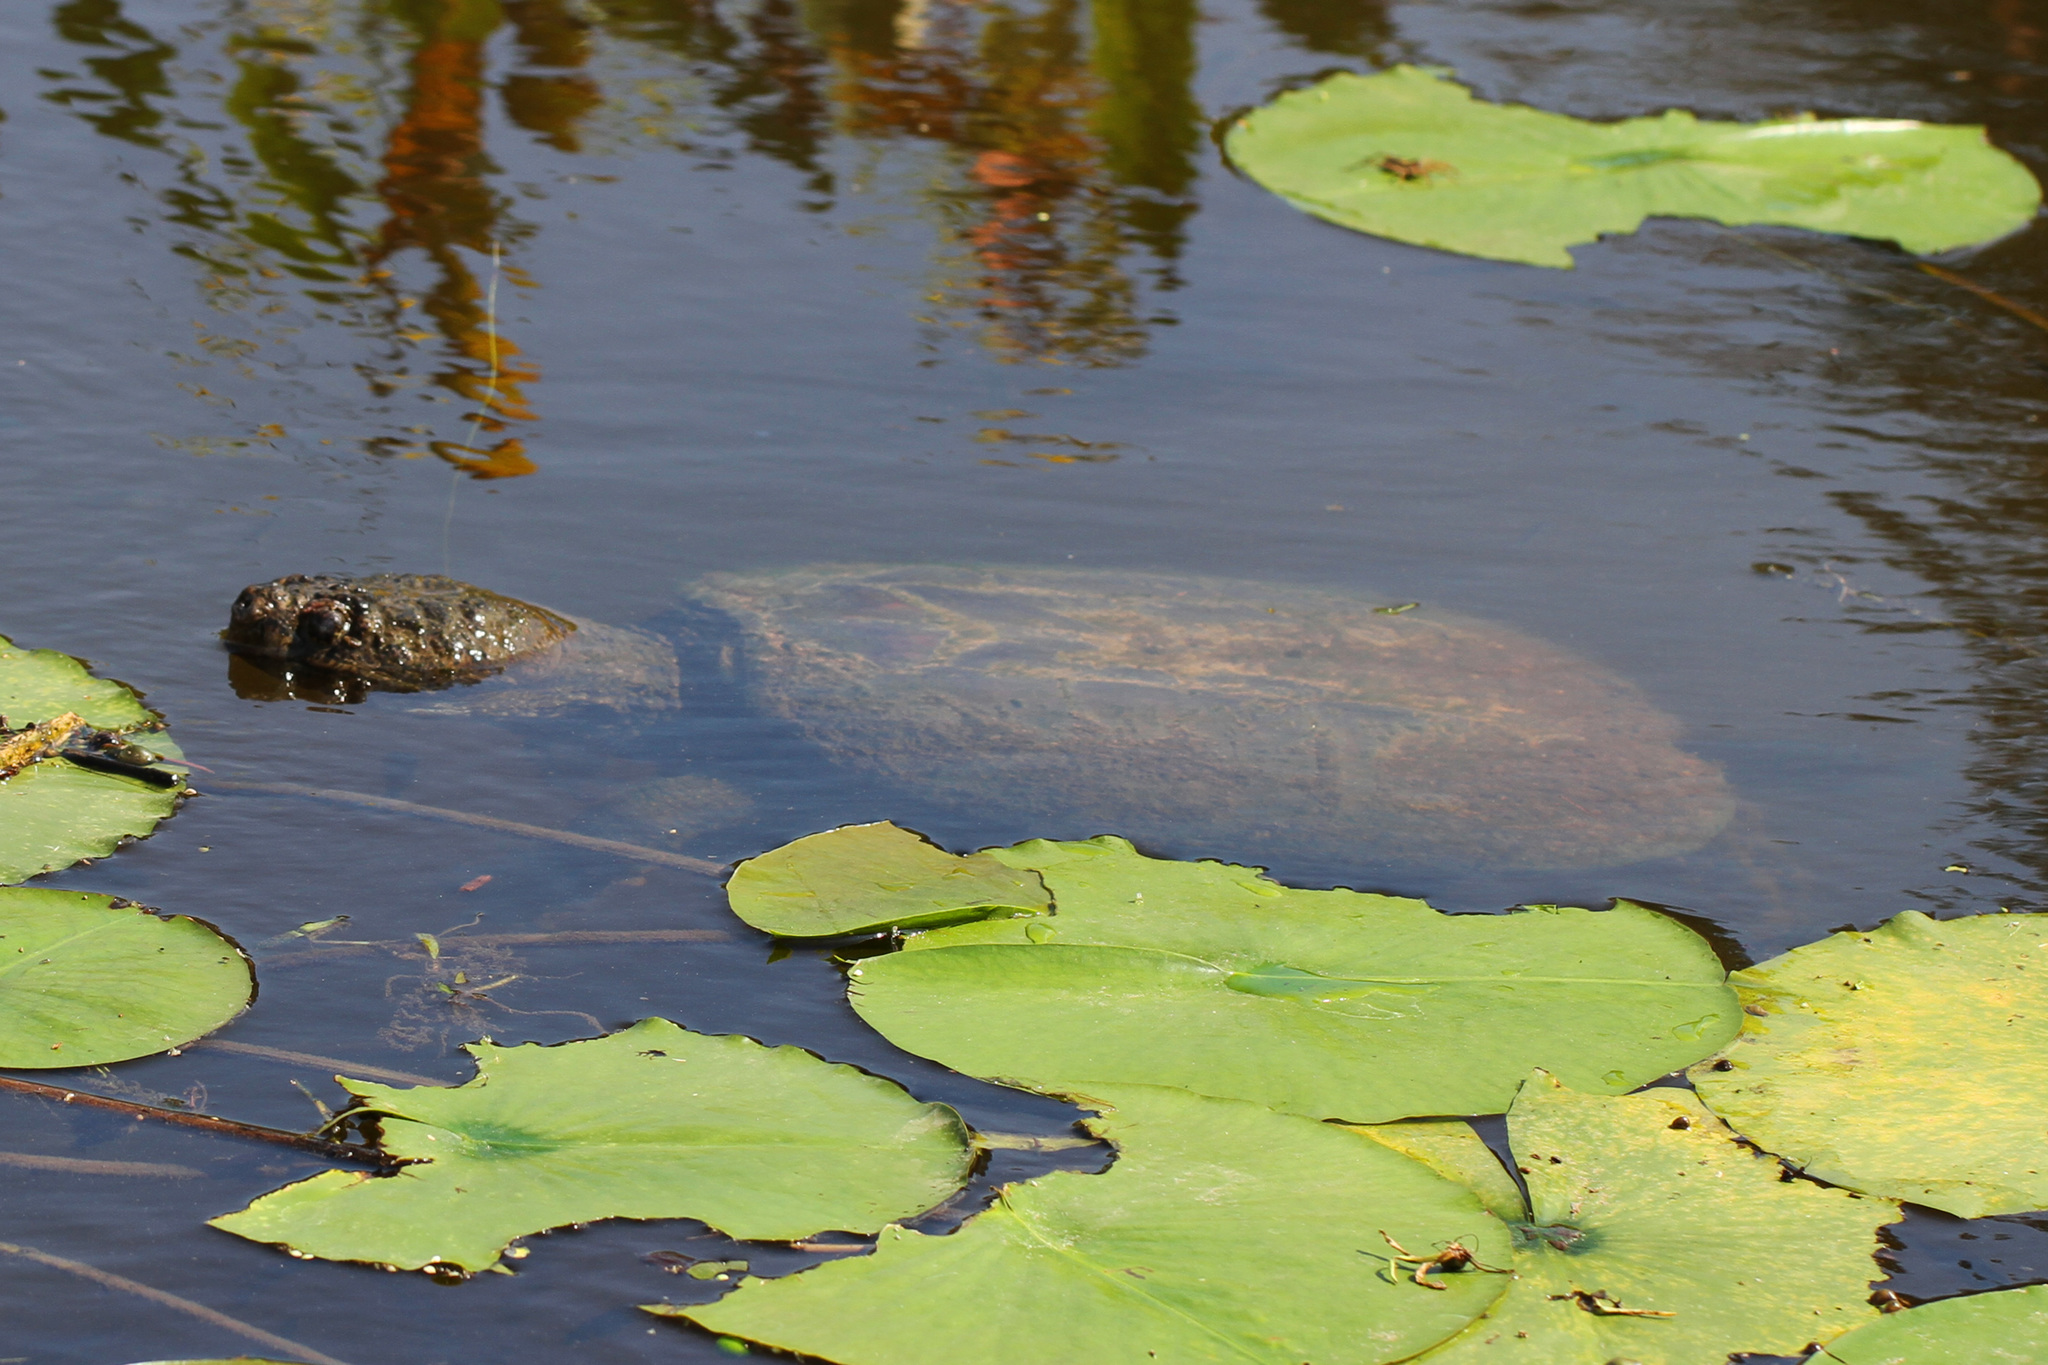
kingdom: Animalia
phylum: Chordata
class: Testudines
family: Chelydridae
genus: Chelydra
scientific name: Chelydra serpentina
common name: Common snapping turtle
